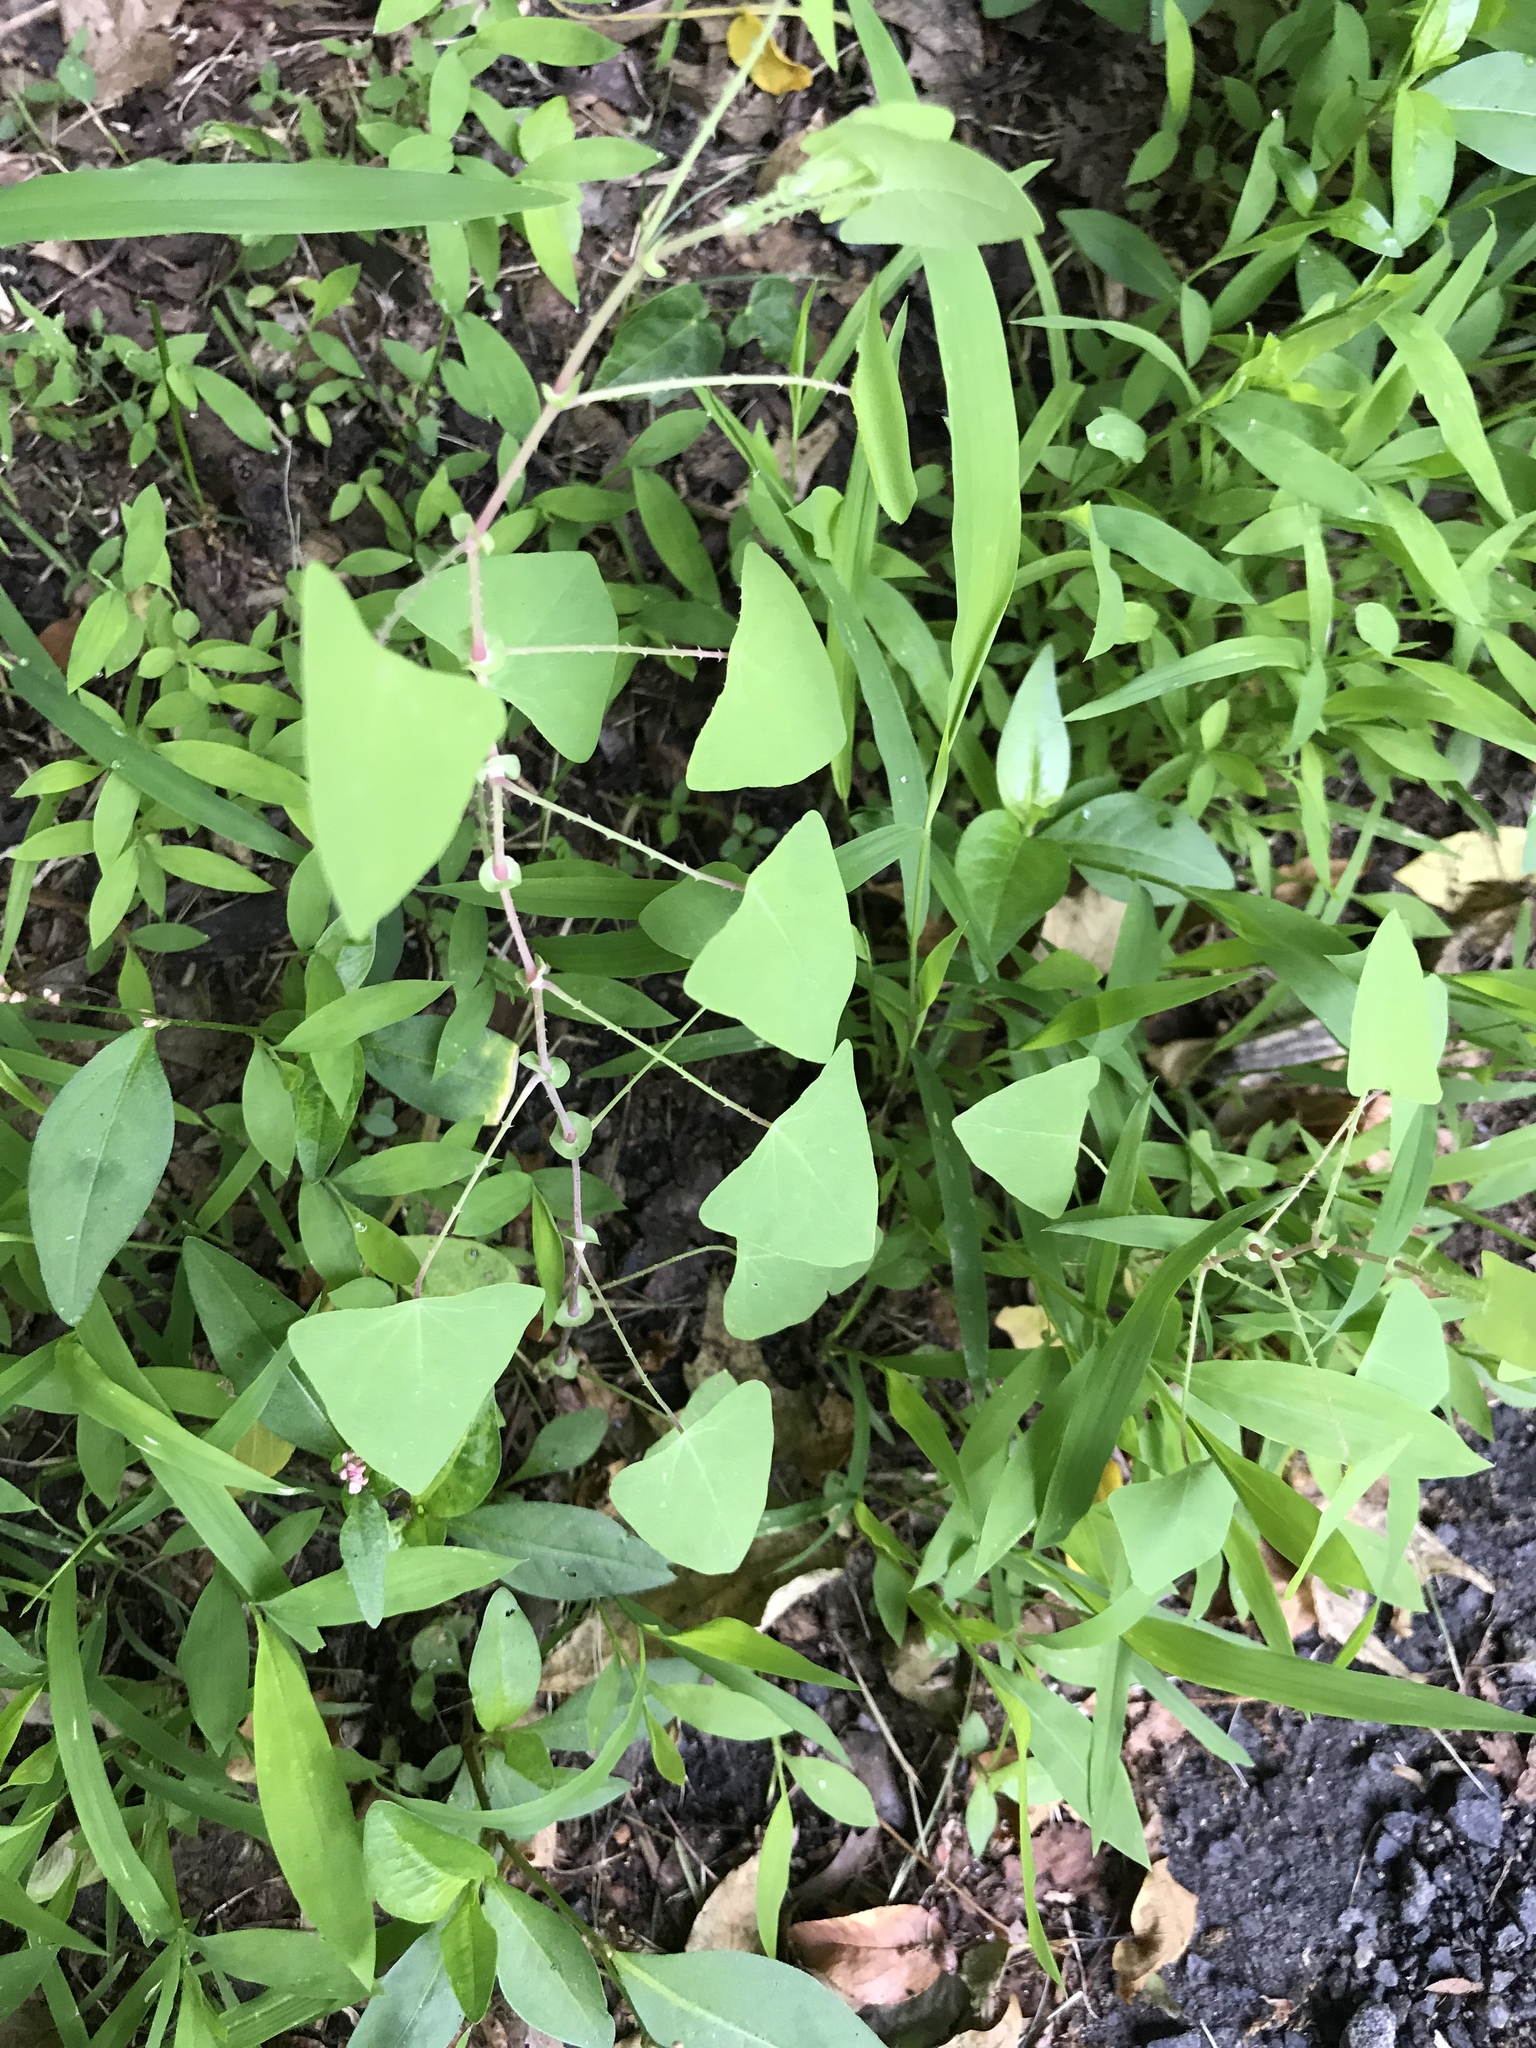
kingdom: Plantae
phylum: Tracheophyta
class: Magnoliopsida
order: Caryophyllales
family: Polygonaceae
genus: Persicaria
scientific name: Persicaria perfoliata
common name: Asiatic tearthumb
